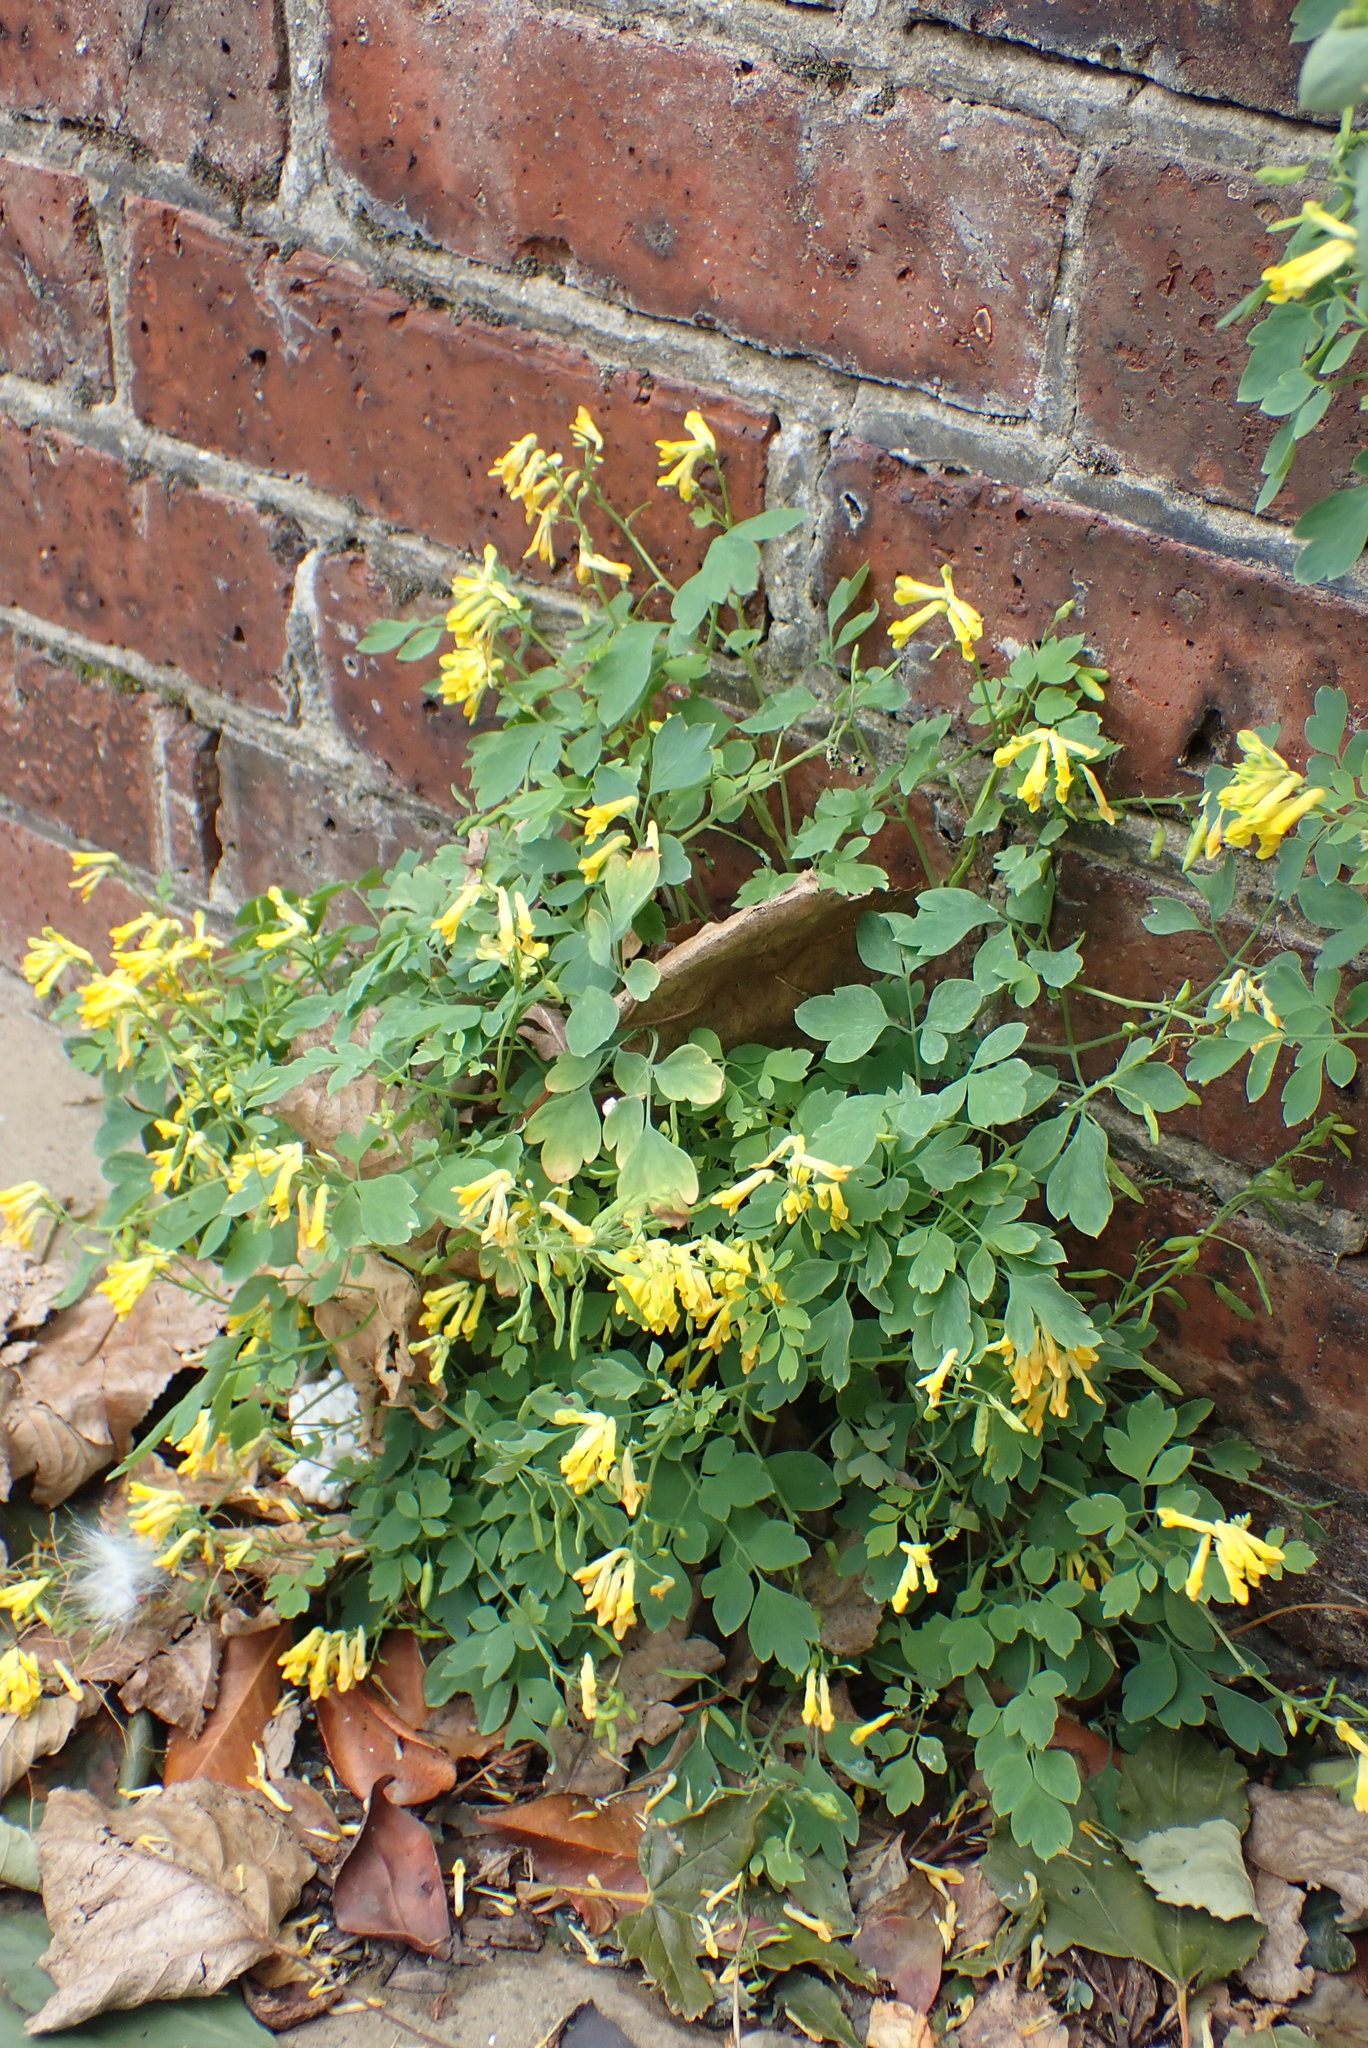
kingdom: Plantae
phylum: Tracheophyta
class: Magnoliopsida
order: Ranunculales
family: Papaveraceae
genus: Pseudofumaria
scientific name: Pseudofumaria lutea
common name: Yellow corydalis
